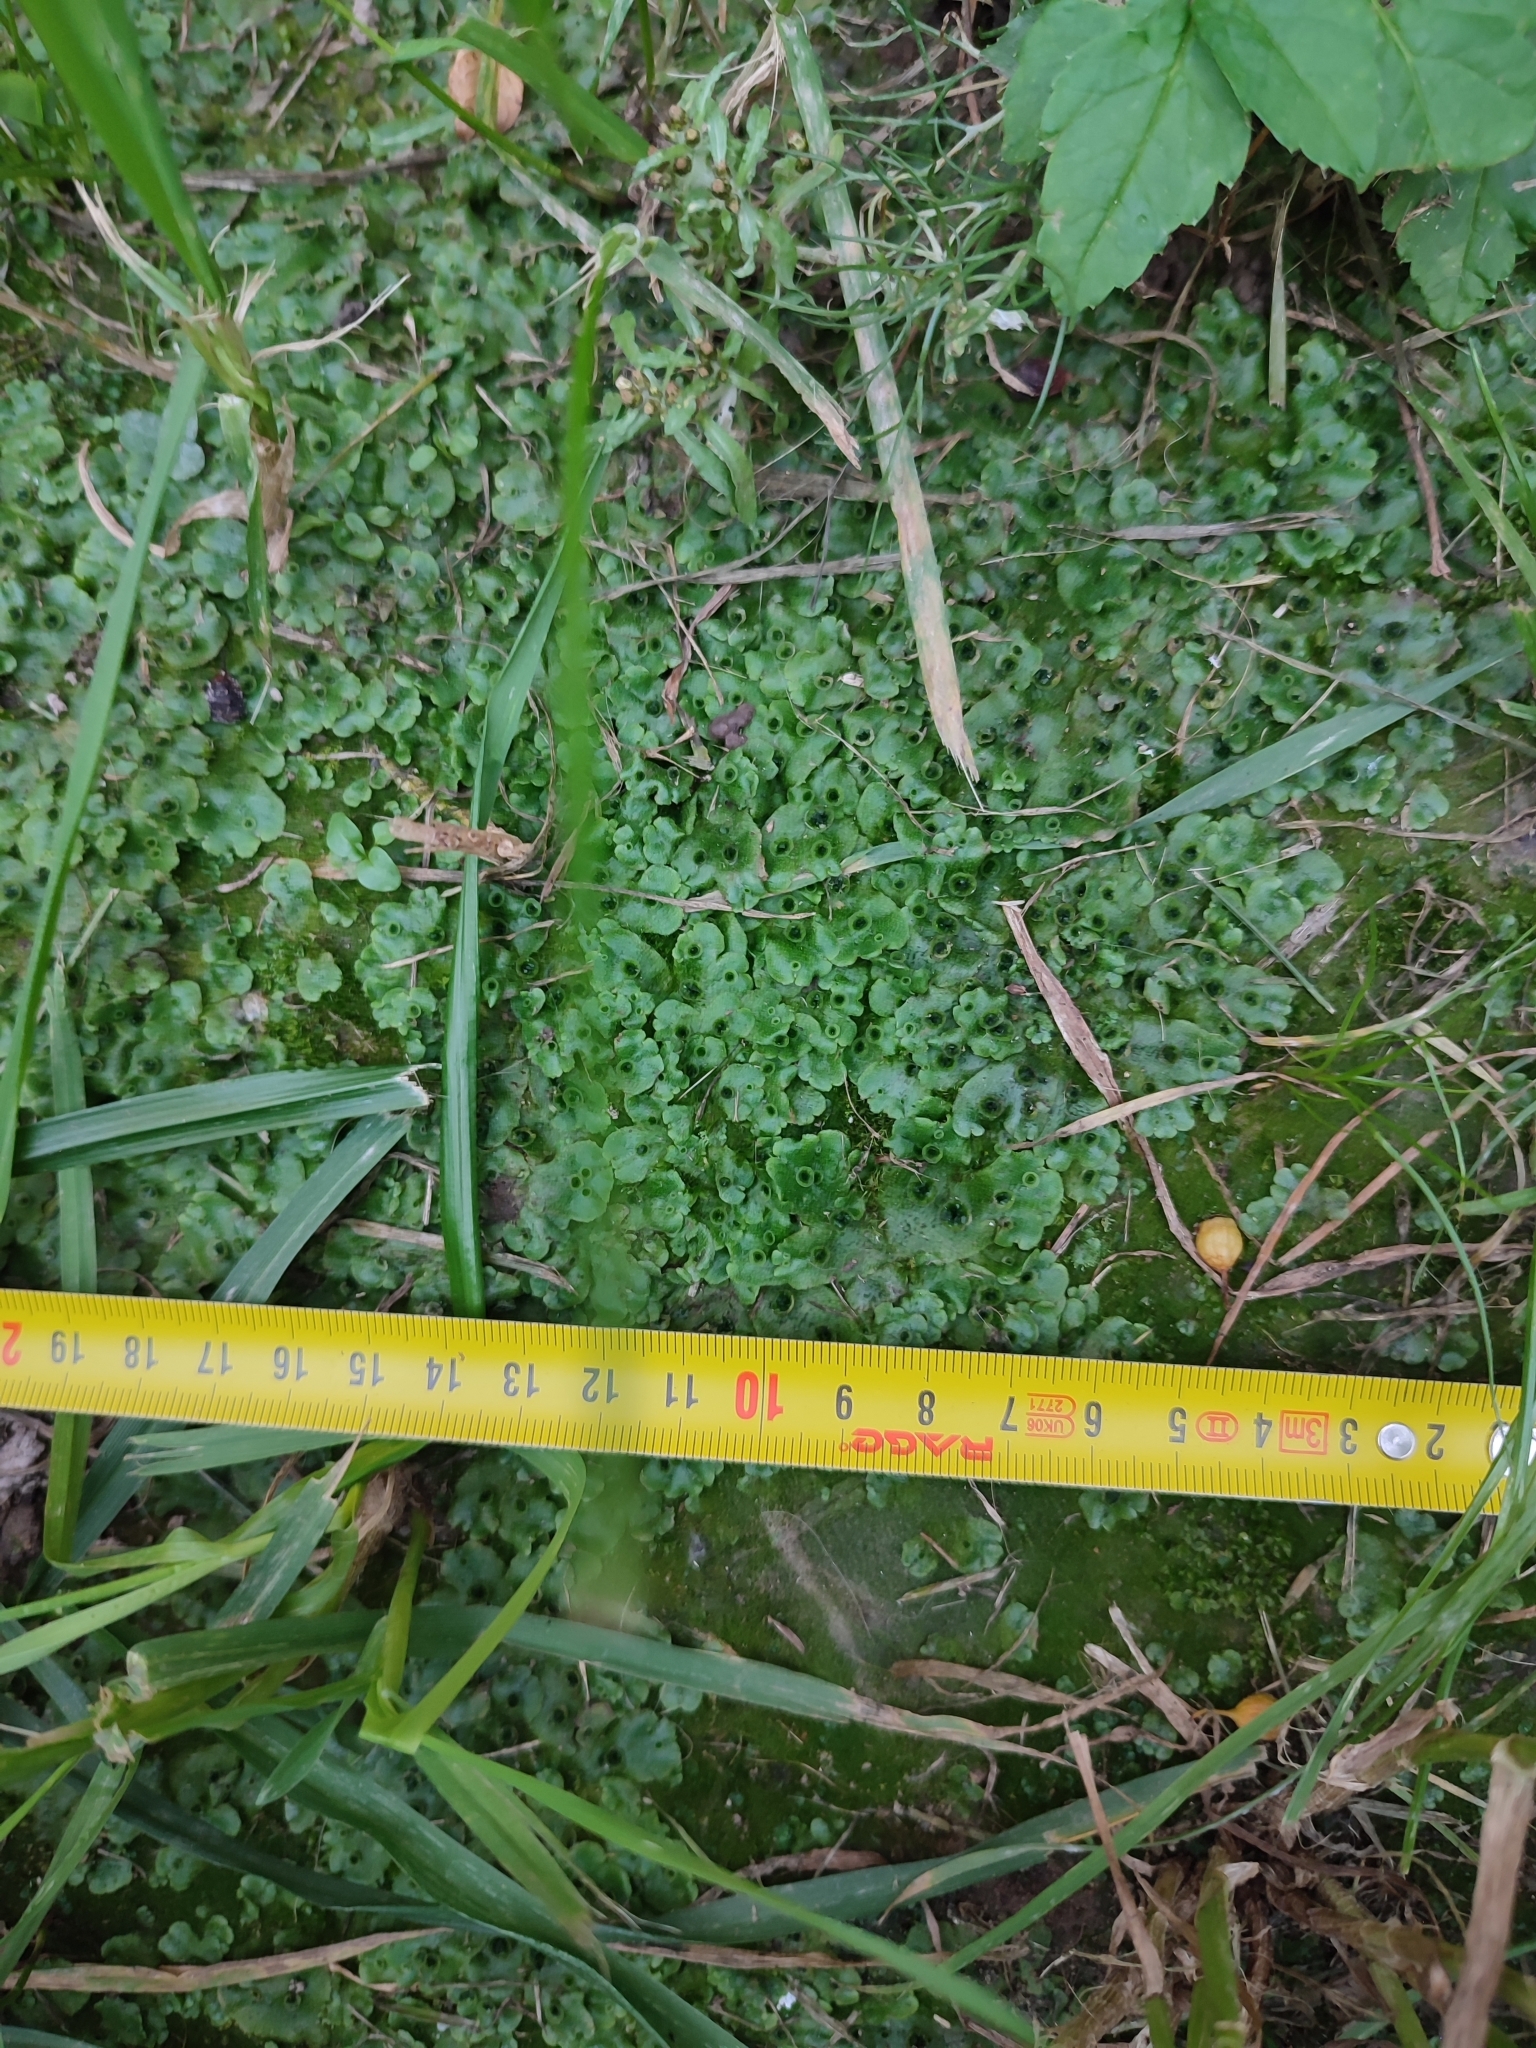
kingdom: Plantae
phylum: Marchantiophyta
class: Marchantiopsida
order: Marchantiales
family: Marchantiaceae
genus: Marchantia
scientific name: Marchantia polymorpha
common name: Common liverwort
